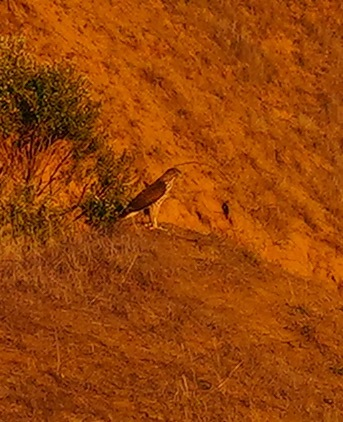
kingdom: Animalia
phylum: Chordata
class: Aves
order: Accipitriformes
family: Accipitridae
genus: Accipiter
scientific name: Accipiter cooperii
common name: Cooper's hawk
